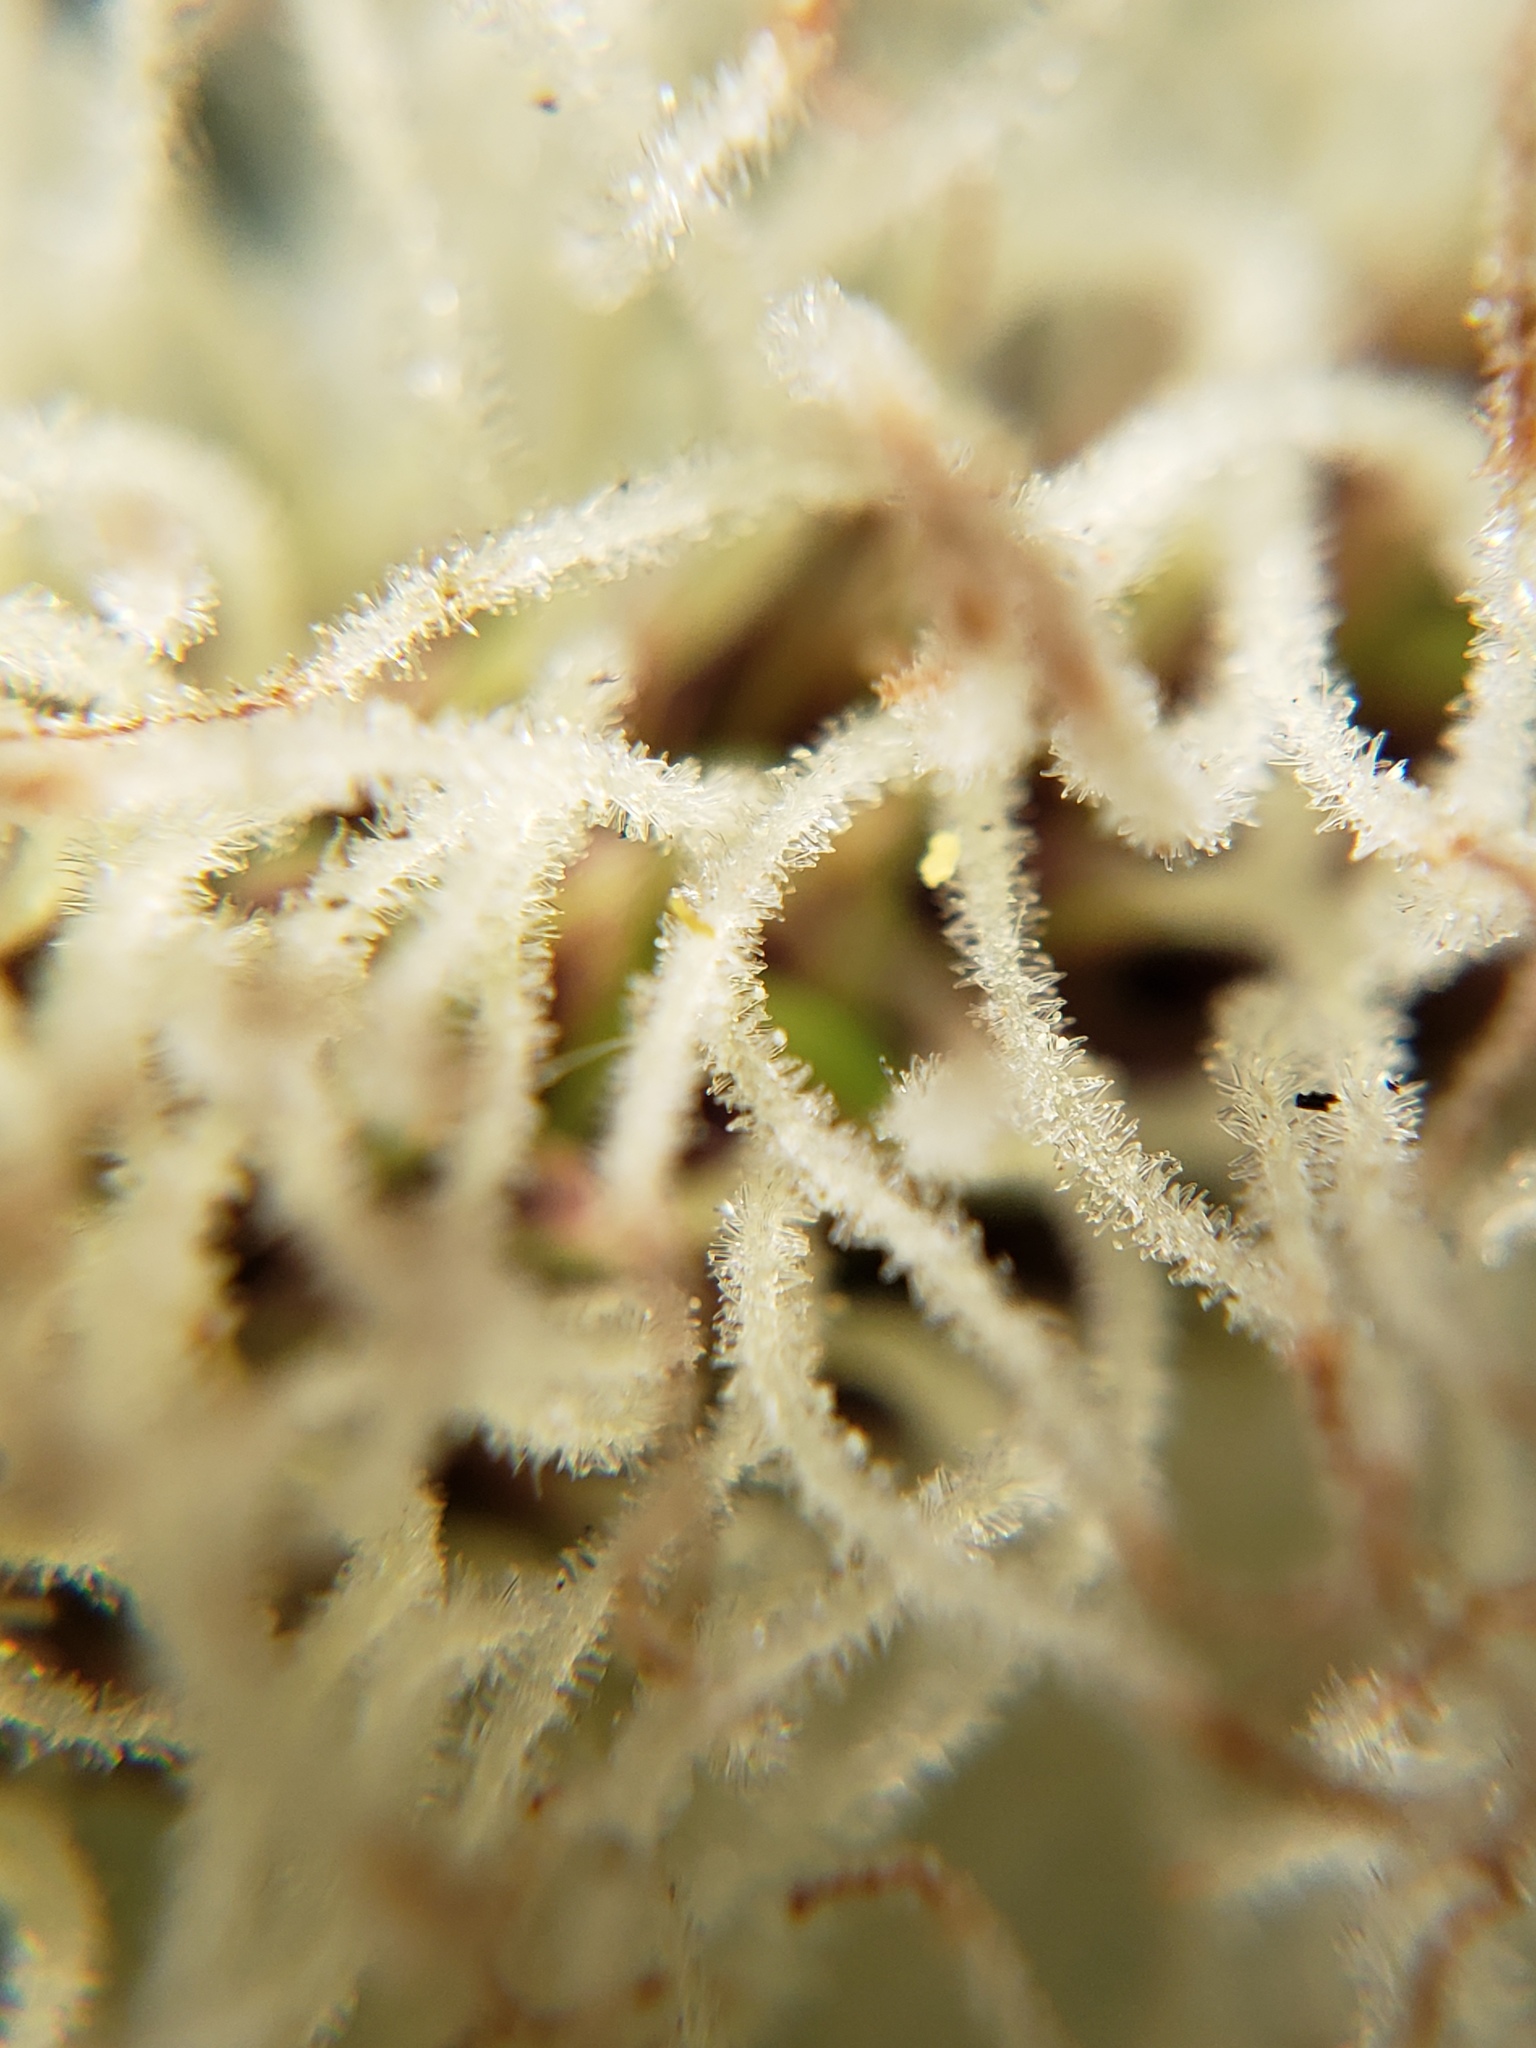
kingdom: Plantae
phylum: Tracheophyta
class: Liliopsida
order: Poales
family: Cyperaceae
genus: Carex
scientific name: Carex barbarae
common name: Santa barbara sedge
